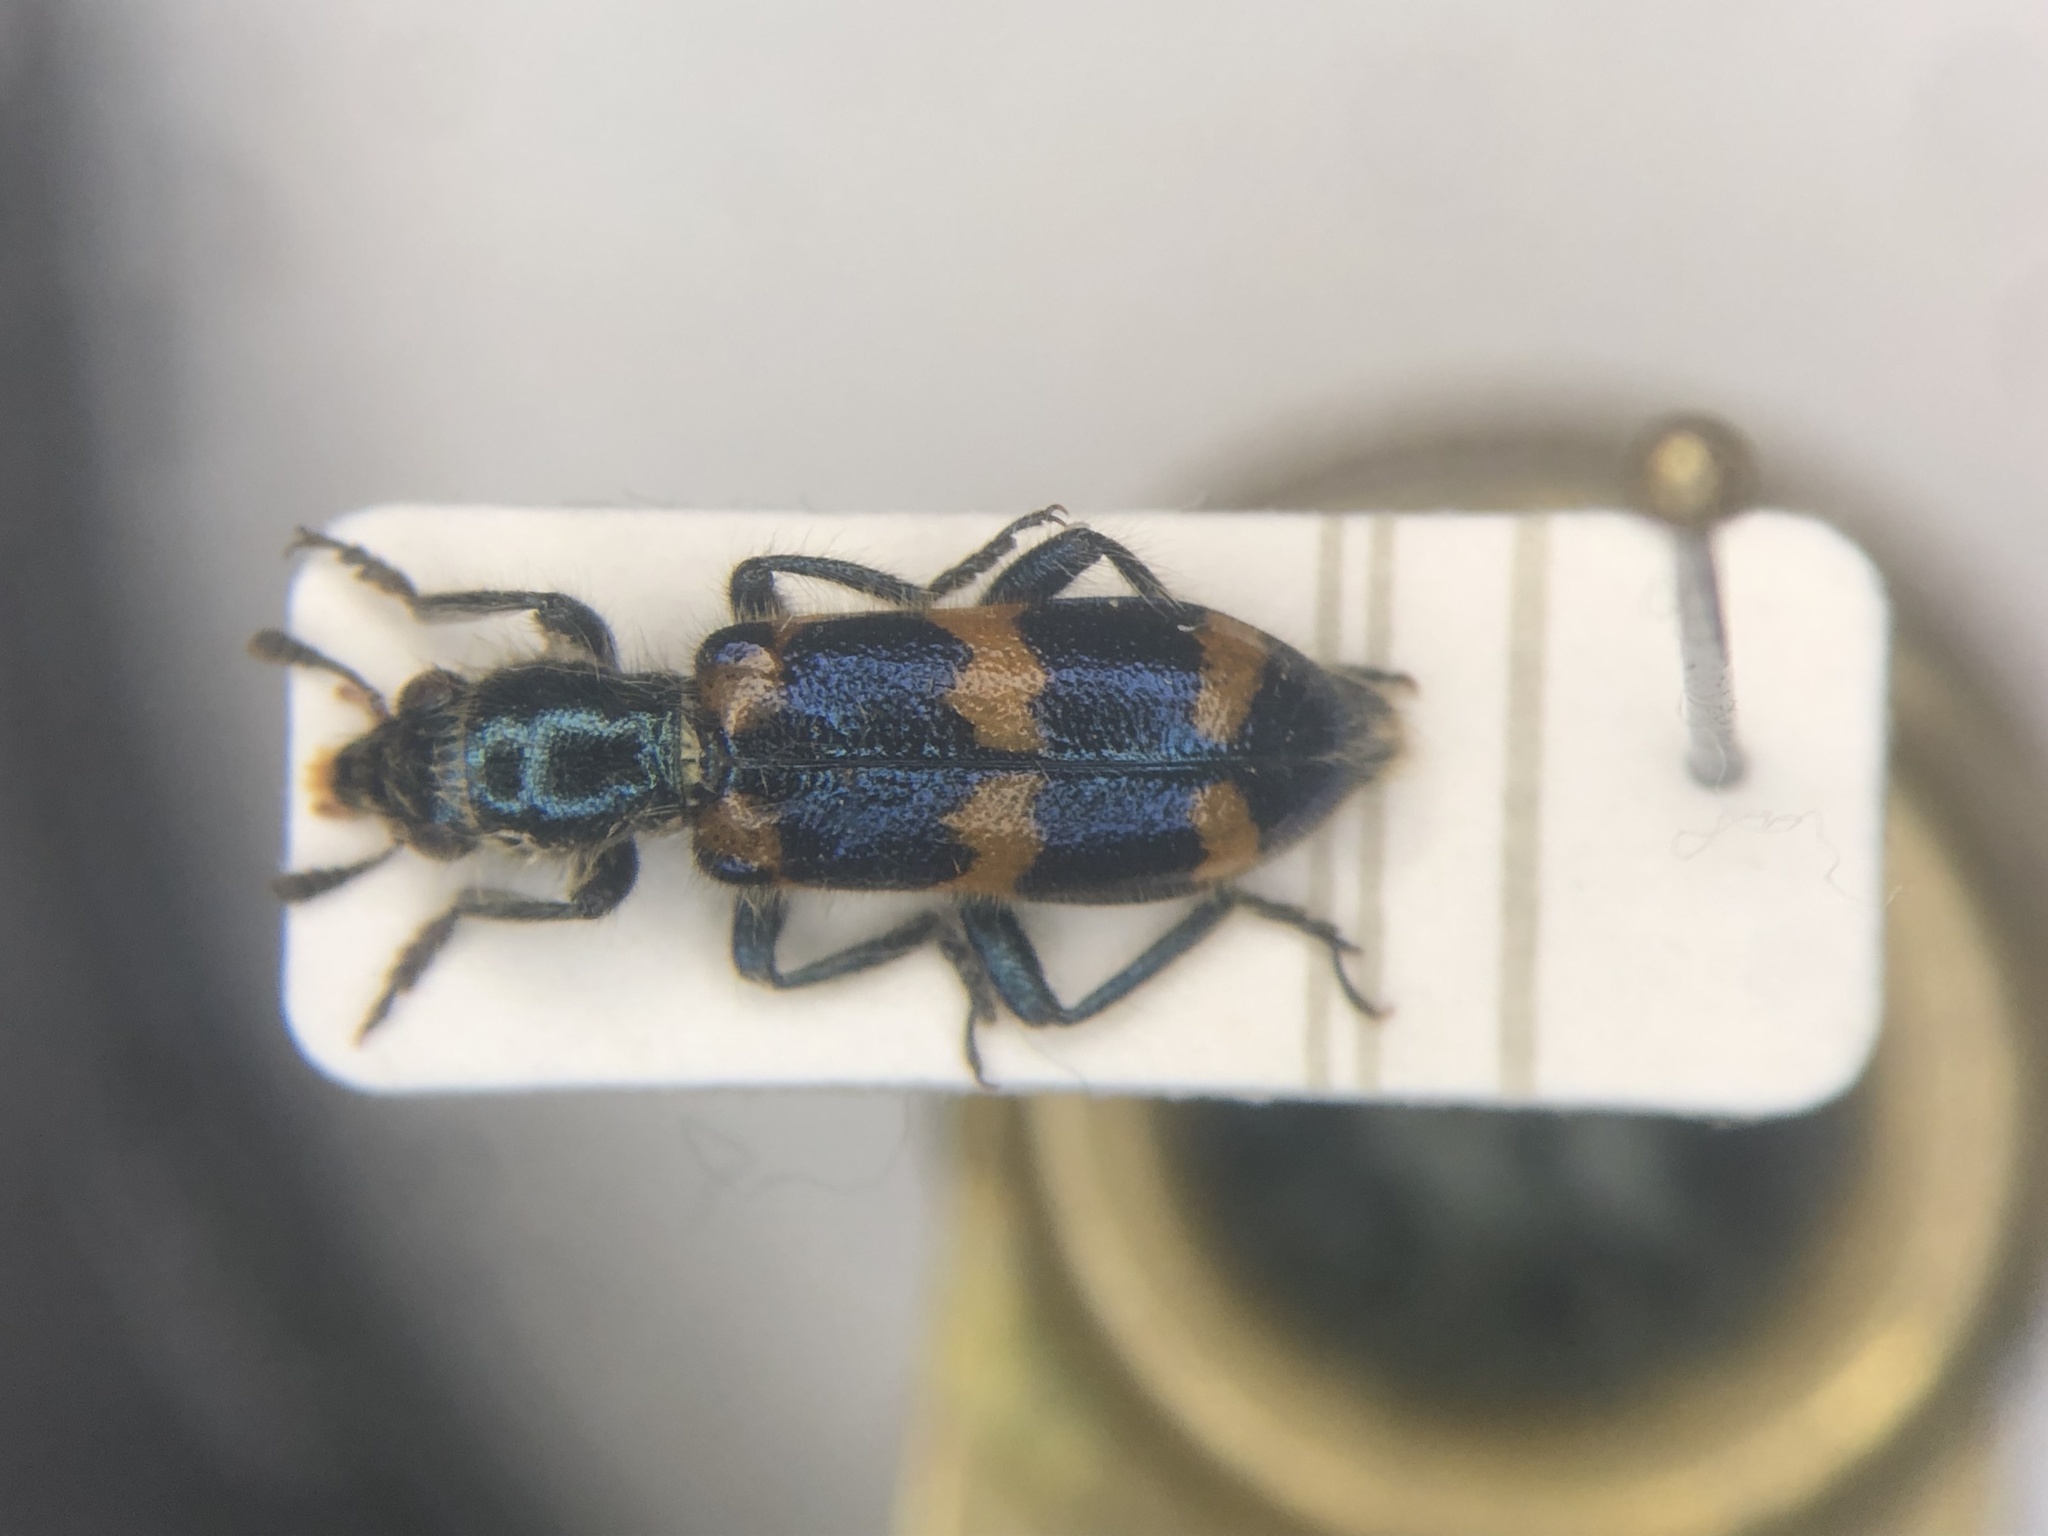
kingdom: Animalia
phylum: Arthropoda
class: Insecta
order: Coleoptera
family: Cleridae
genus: Trichodes
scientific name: Trichodes nutalli
